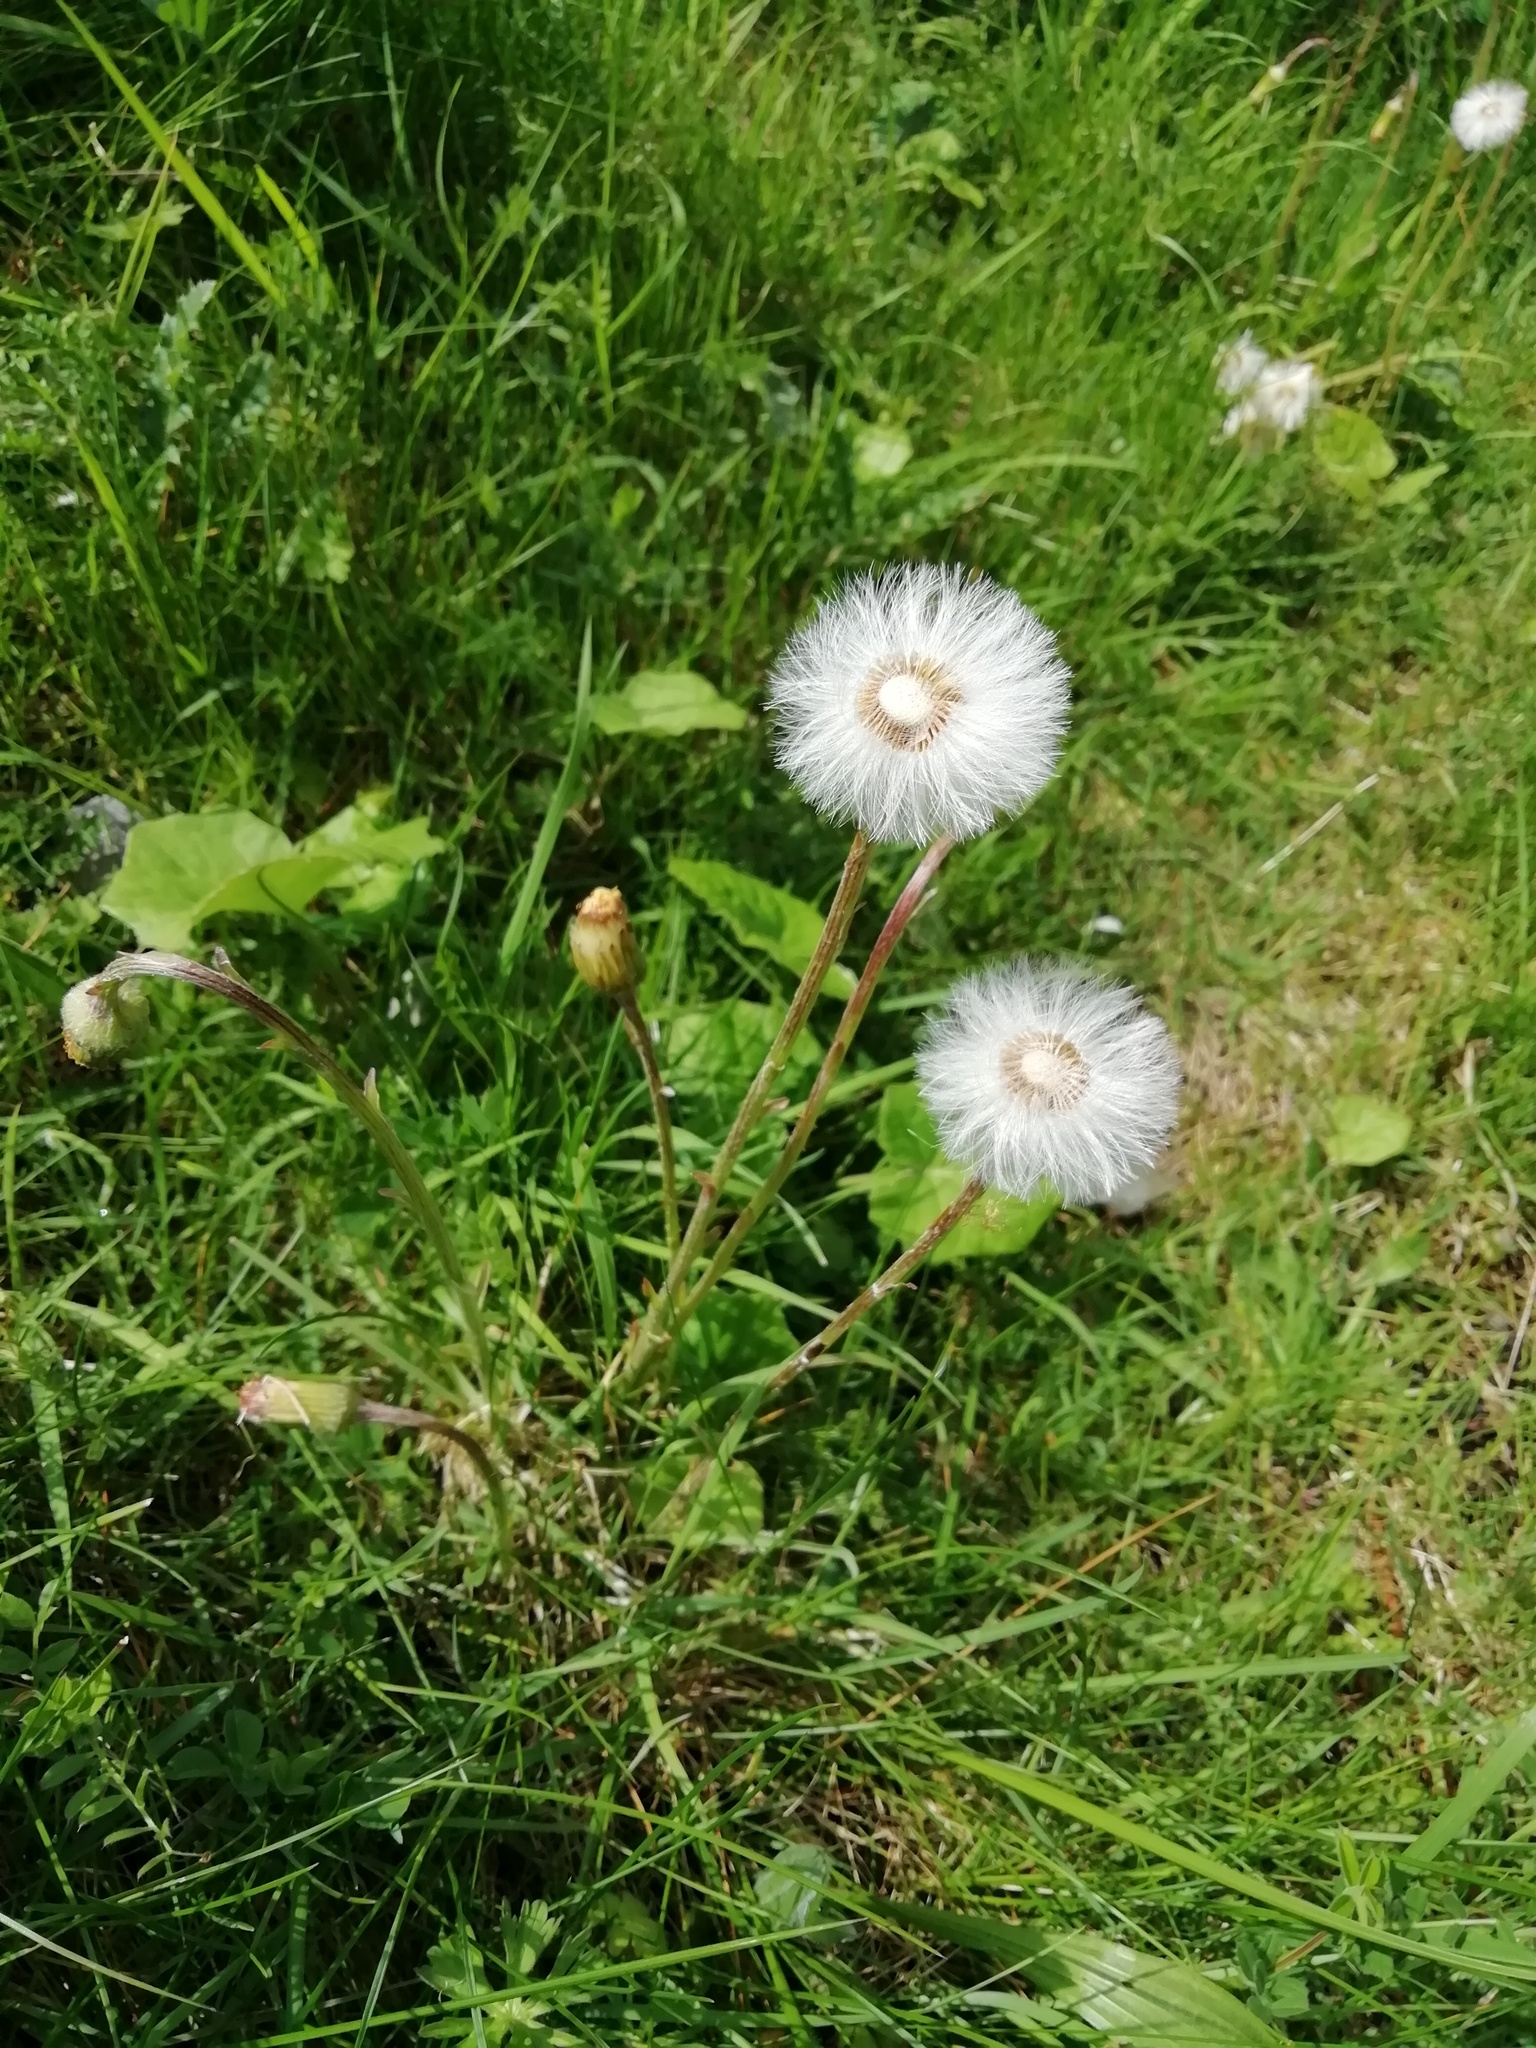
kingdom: Plantae
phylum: Tracheophyta
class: Magnoliopsida
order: Asterales
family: Asteraceae
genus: Tussilago
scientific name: Tussilago farfara
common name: Coltsfoot
